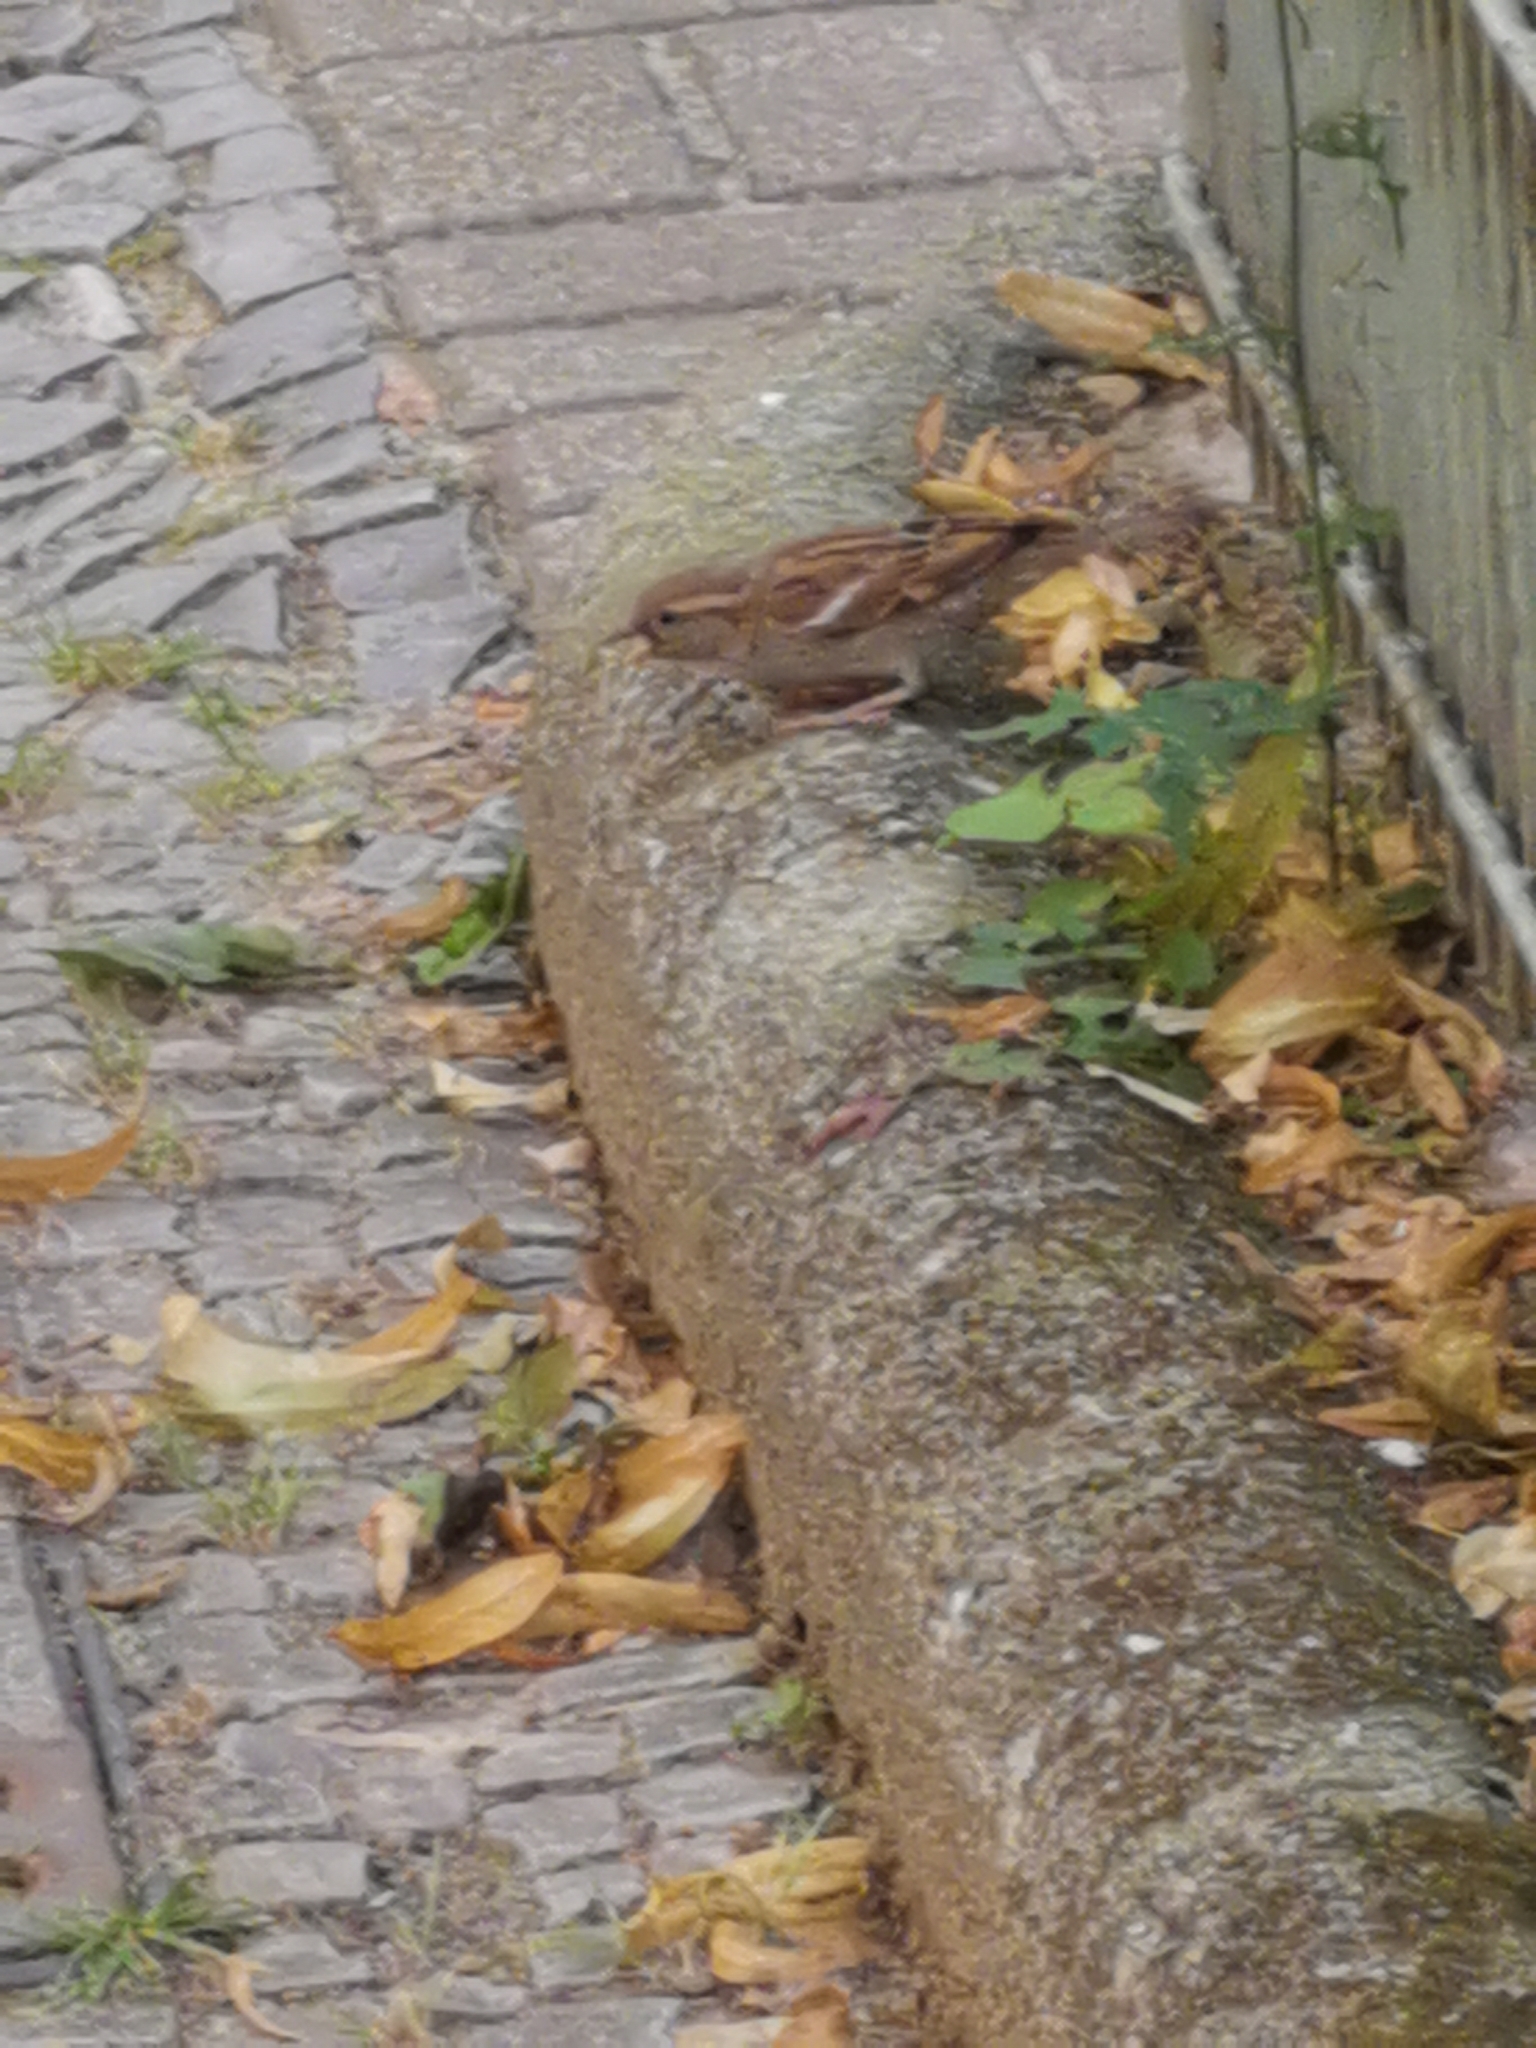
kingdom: Animalia
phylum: Chordata
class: Aves
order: Passeriformes
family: Passeridae
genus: Passer
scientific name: Passer domesticus
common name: House sparrow
